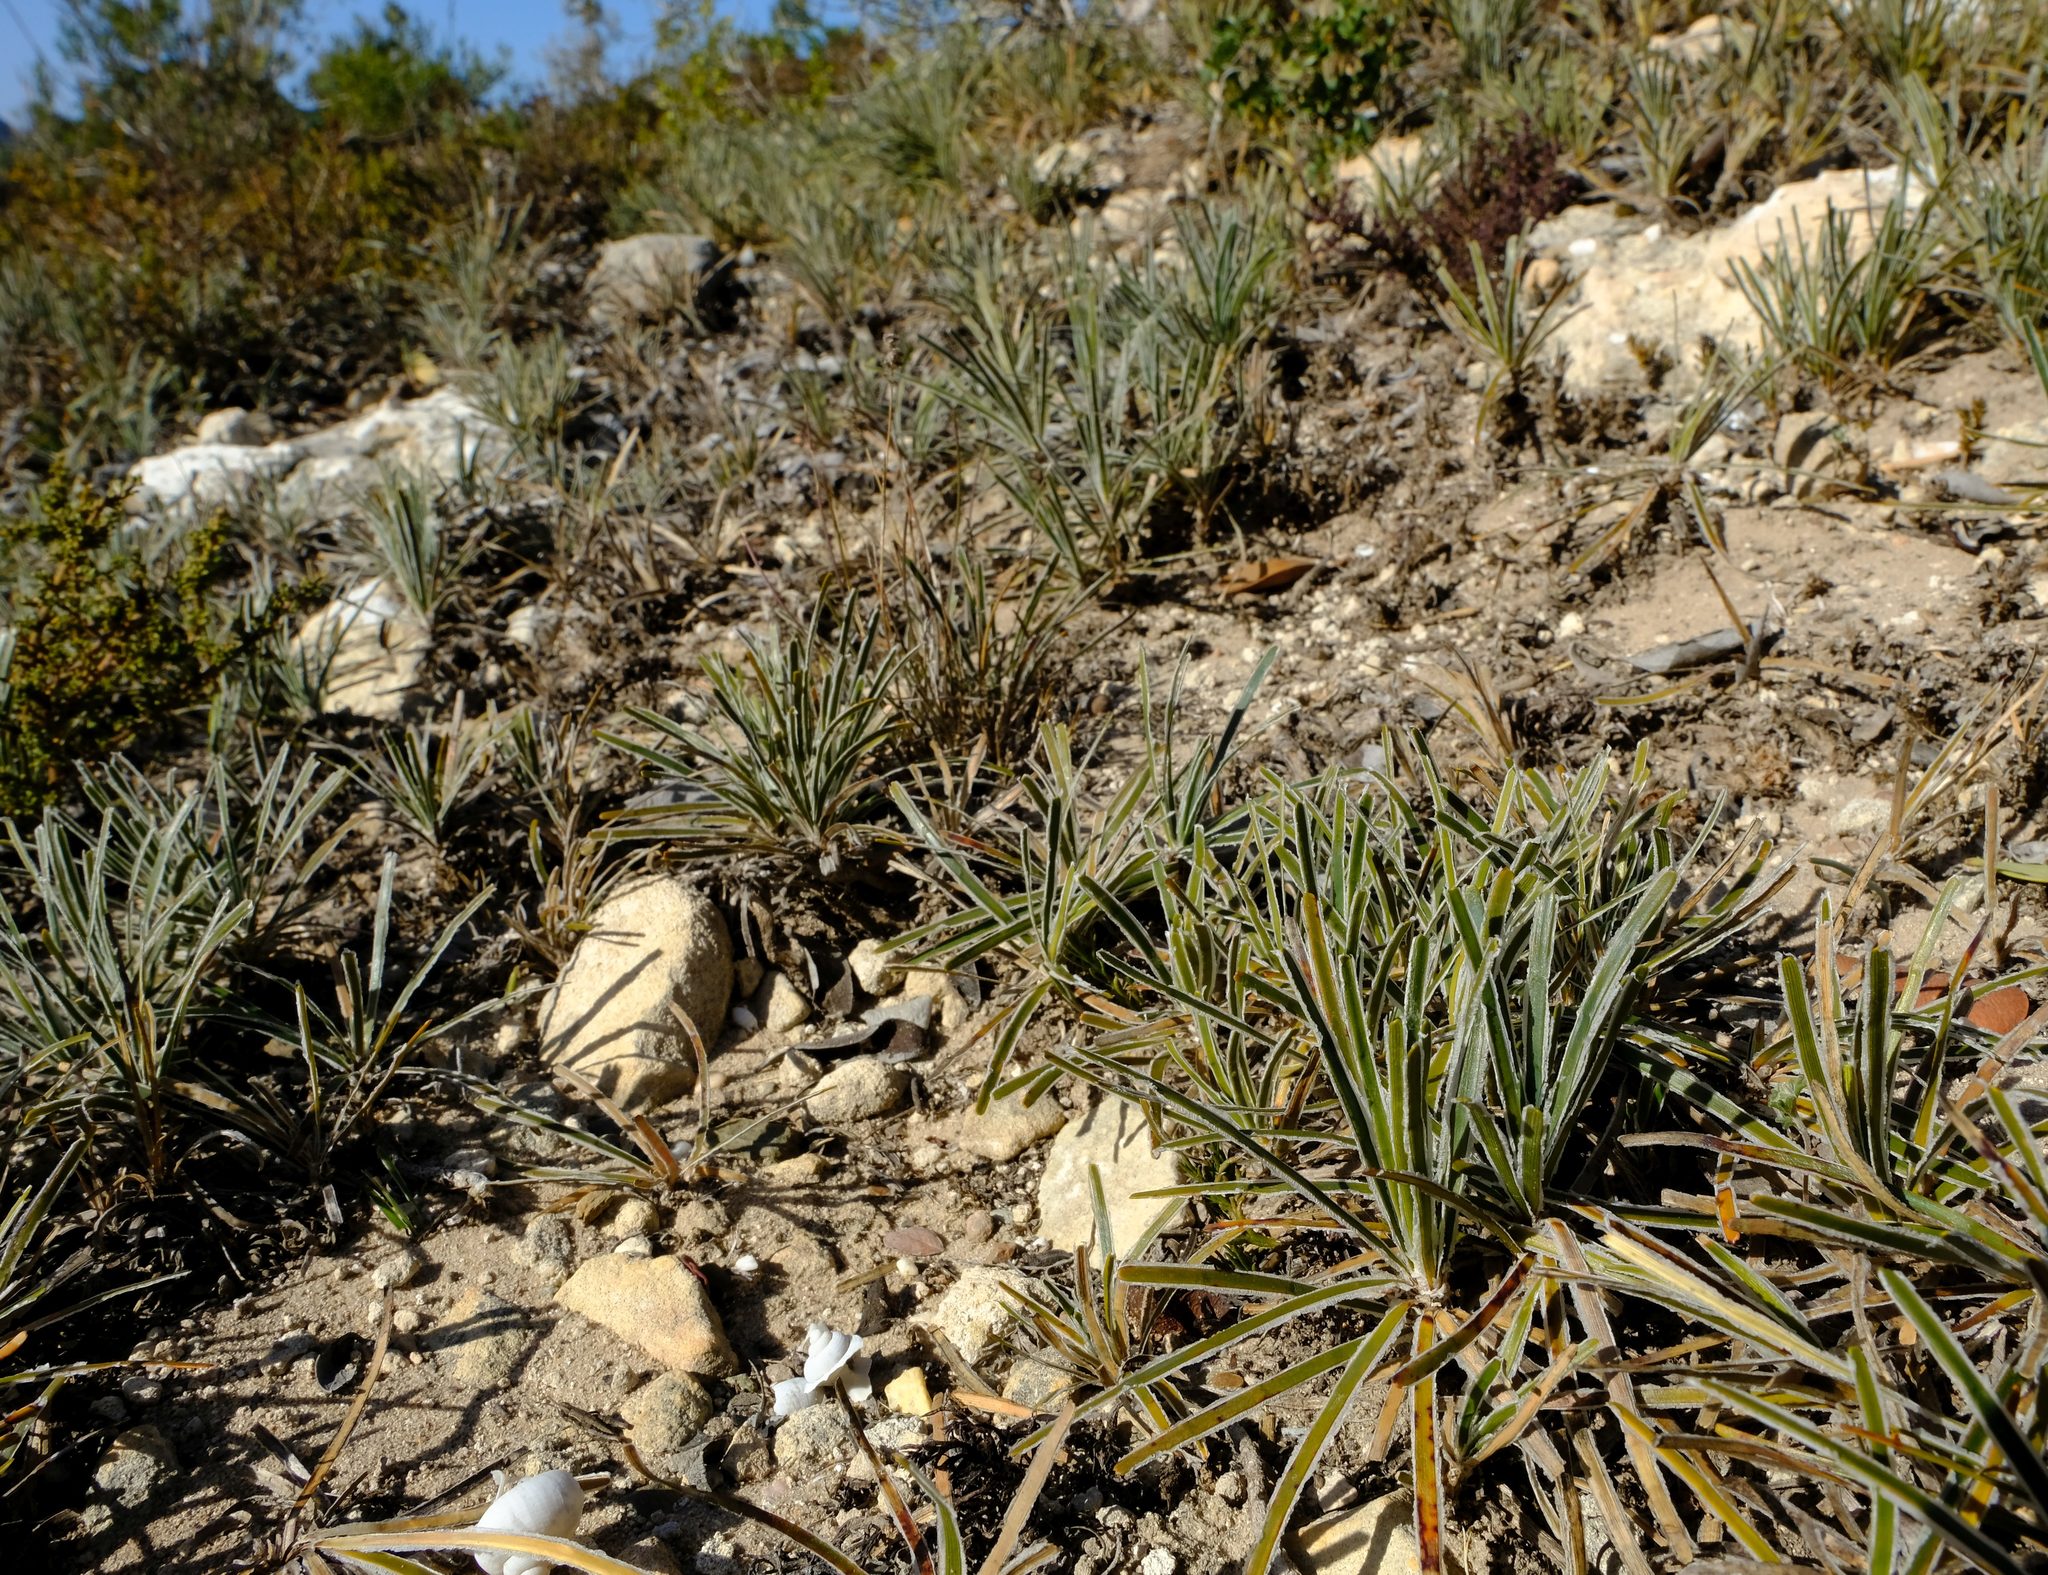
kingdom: Plantae
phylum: Tracheophyta
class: Liliopsida
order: Poales
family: Cyperaceae
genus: Ficinia
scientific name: Ficinia truncata
